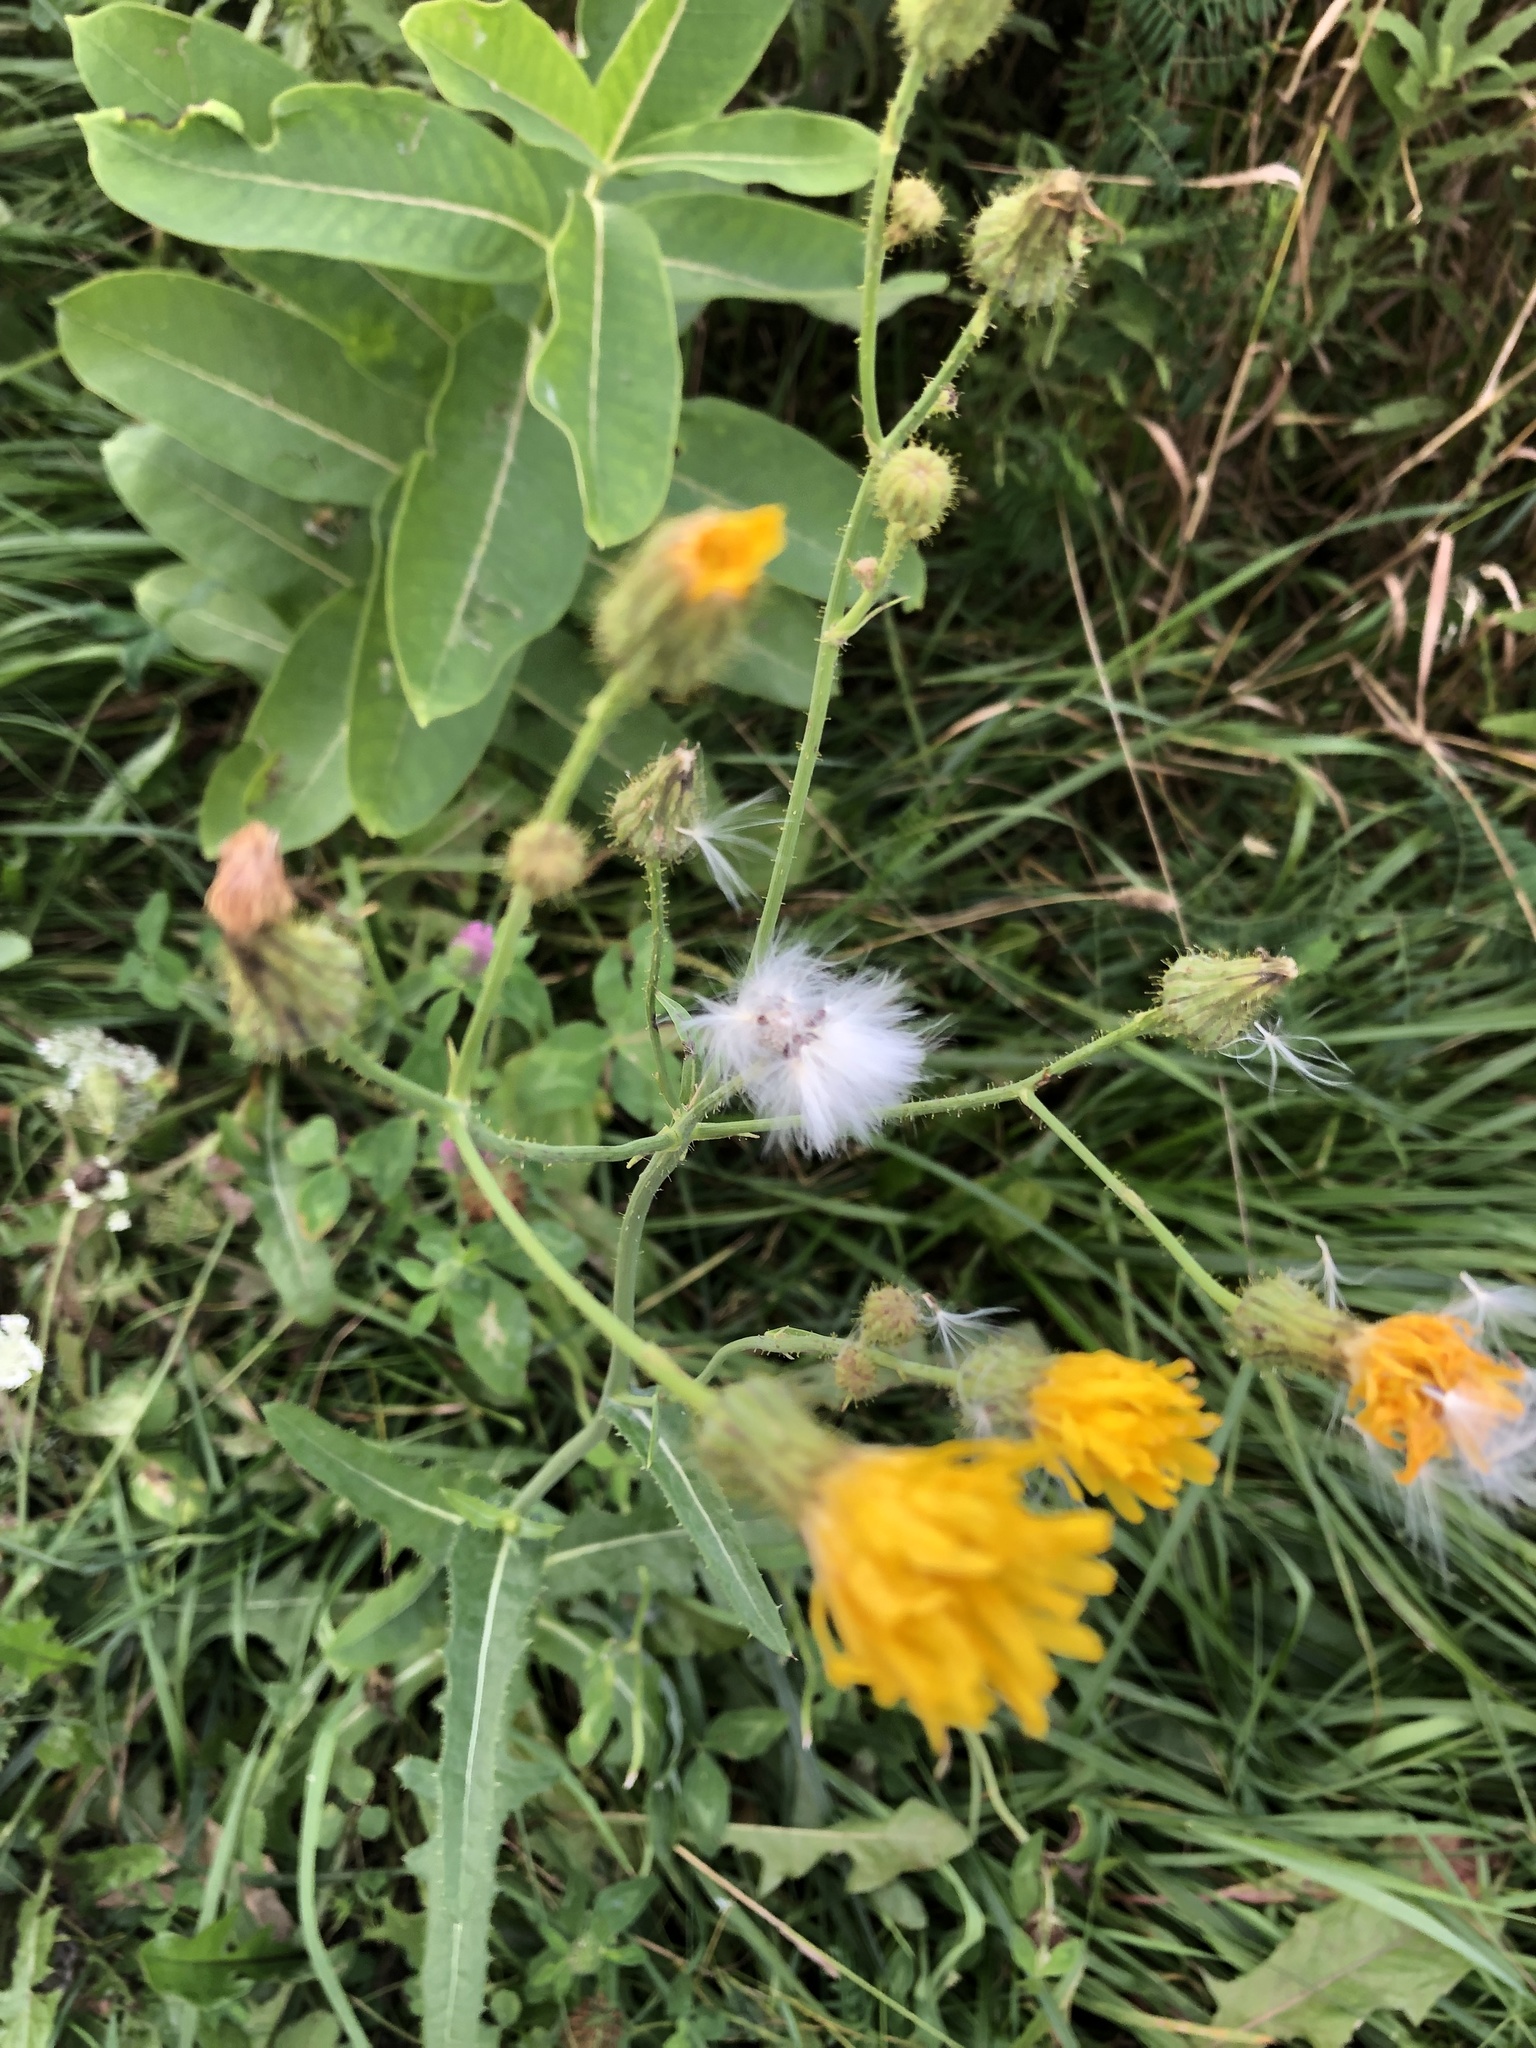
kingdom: Plantae
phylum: Tracheophyta
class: Magnoliopsida
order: Asterales
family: Asteraceae
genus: Sonchus
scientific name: Sonchus arvensis
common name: Perennial sow-thistle
